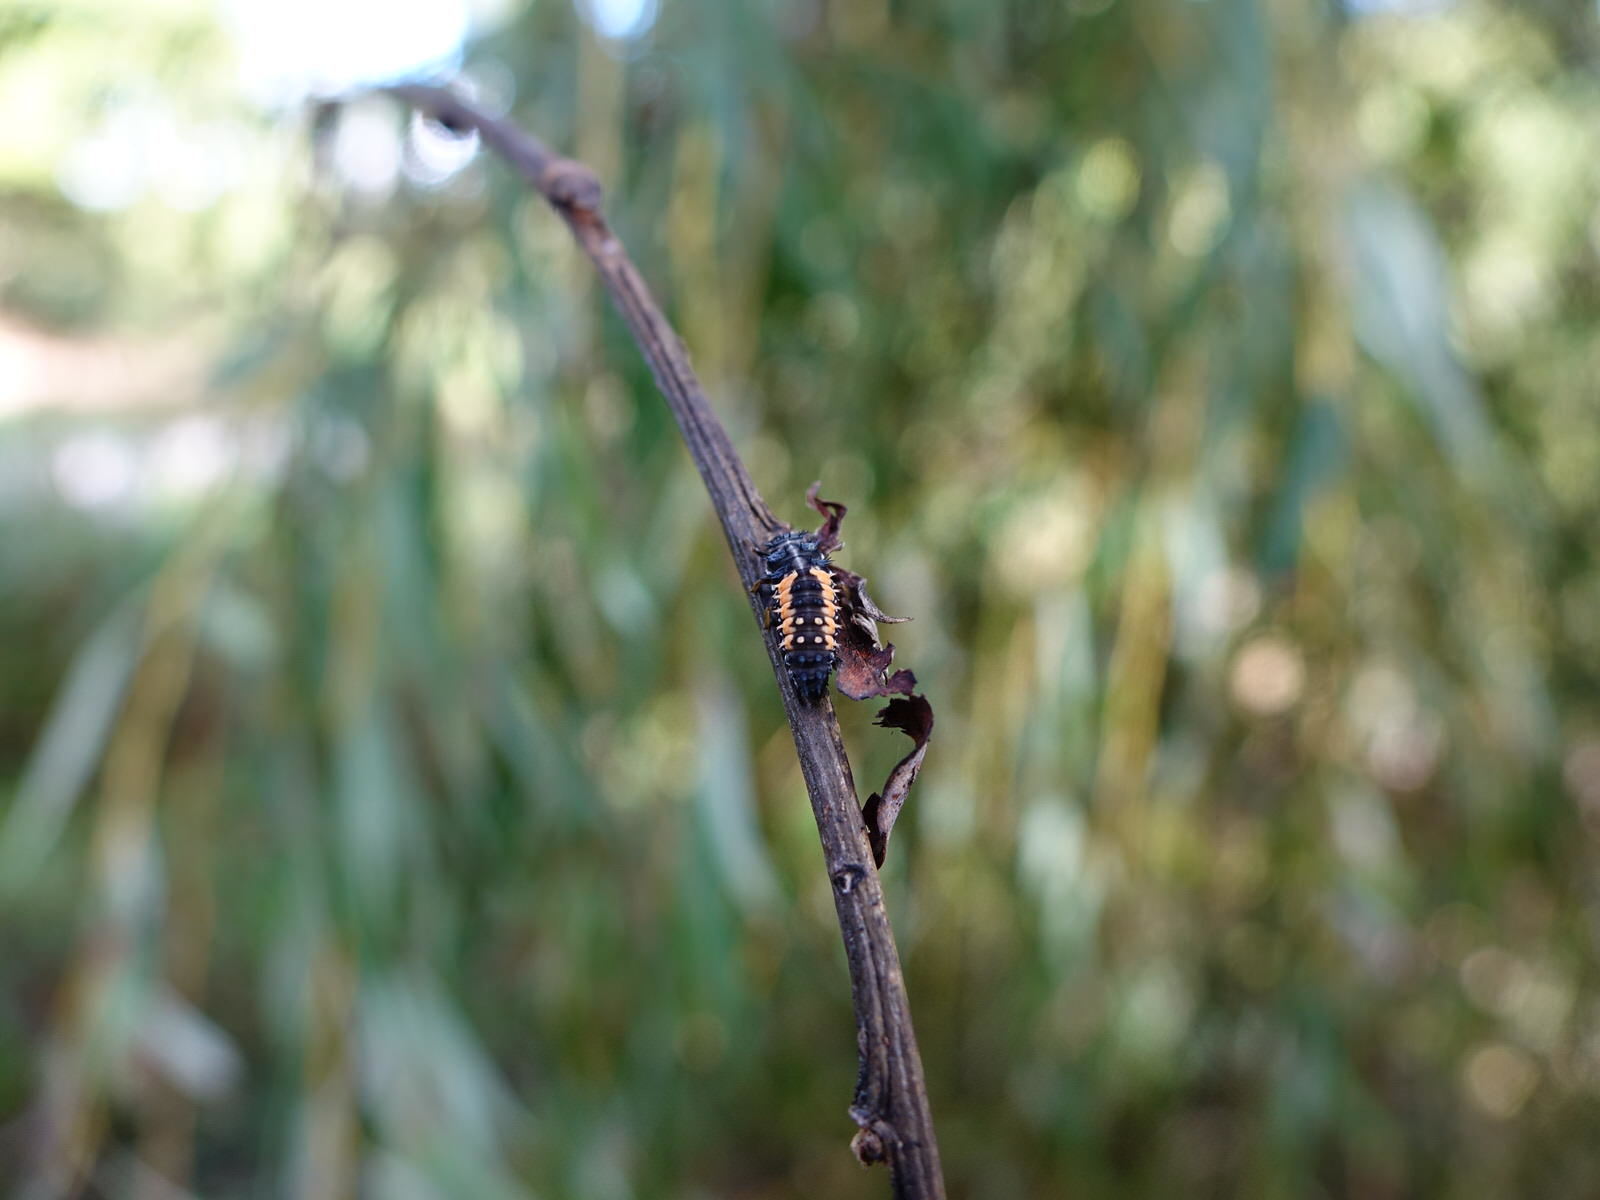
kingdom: Animalia
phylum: Arthropoda
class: Insecta
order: Coleoptera
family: Coccinellidae
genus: Harmonia
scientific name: Harmonia axyridis
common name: Harlequin ladybird
